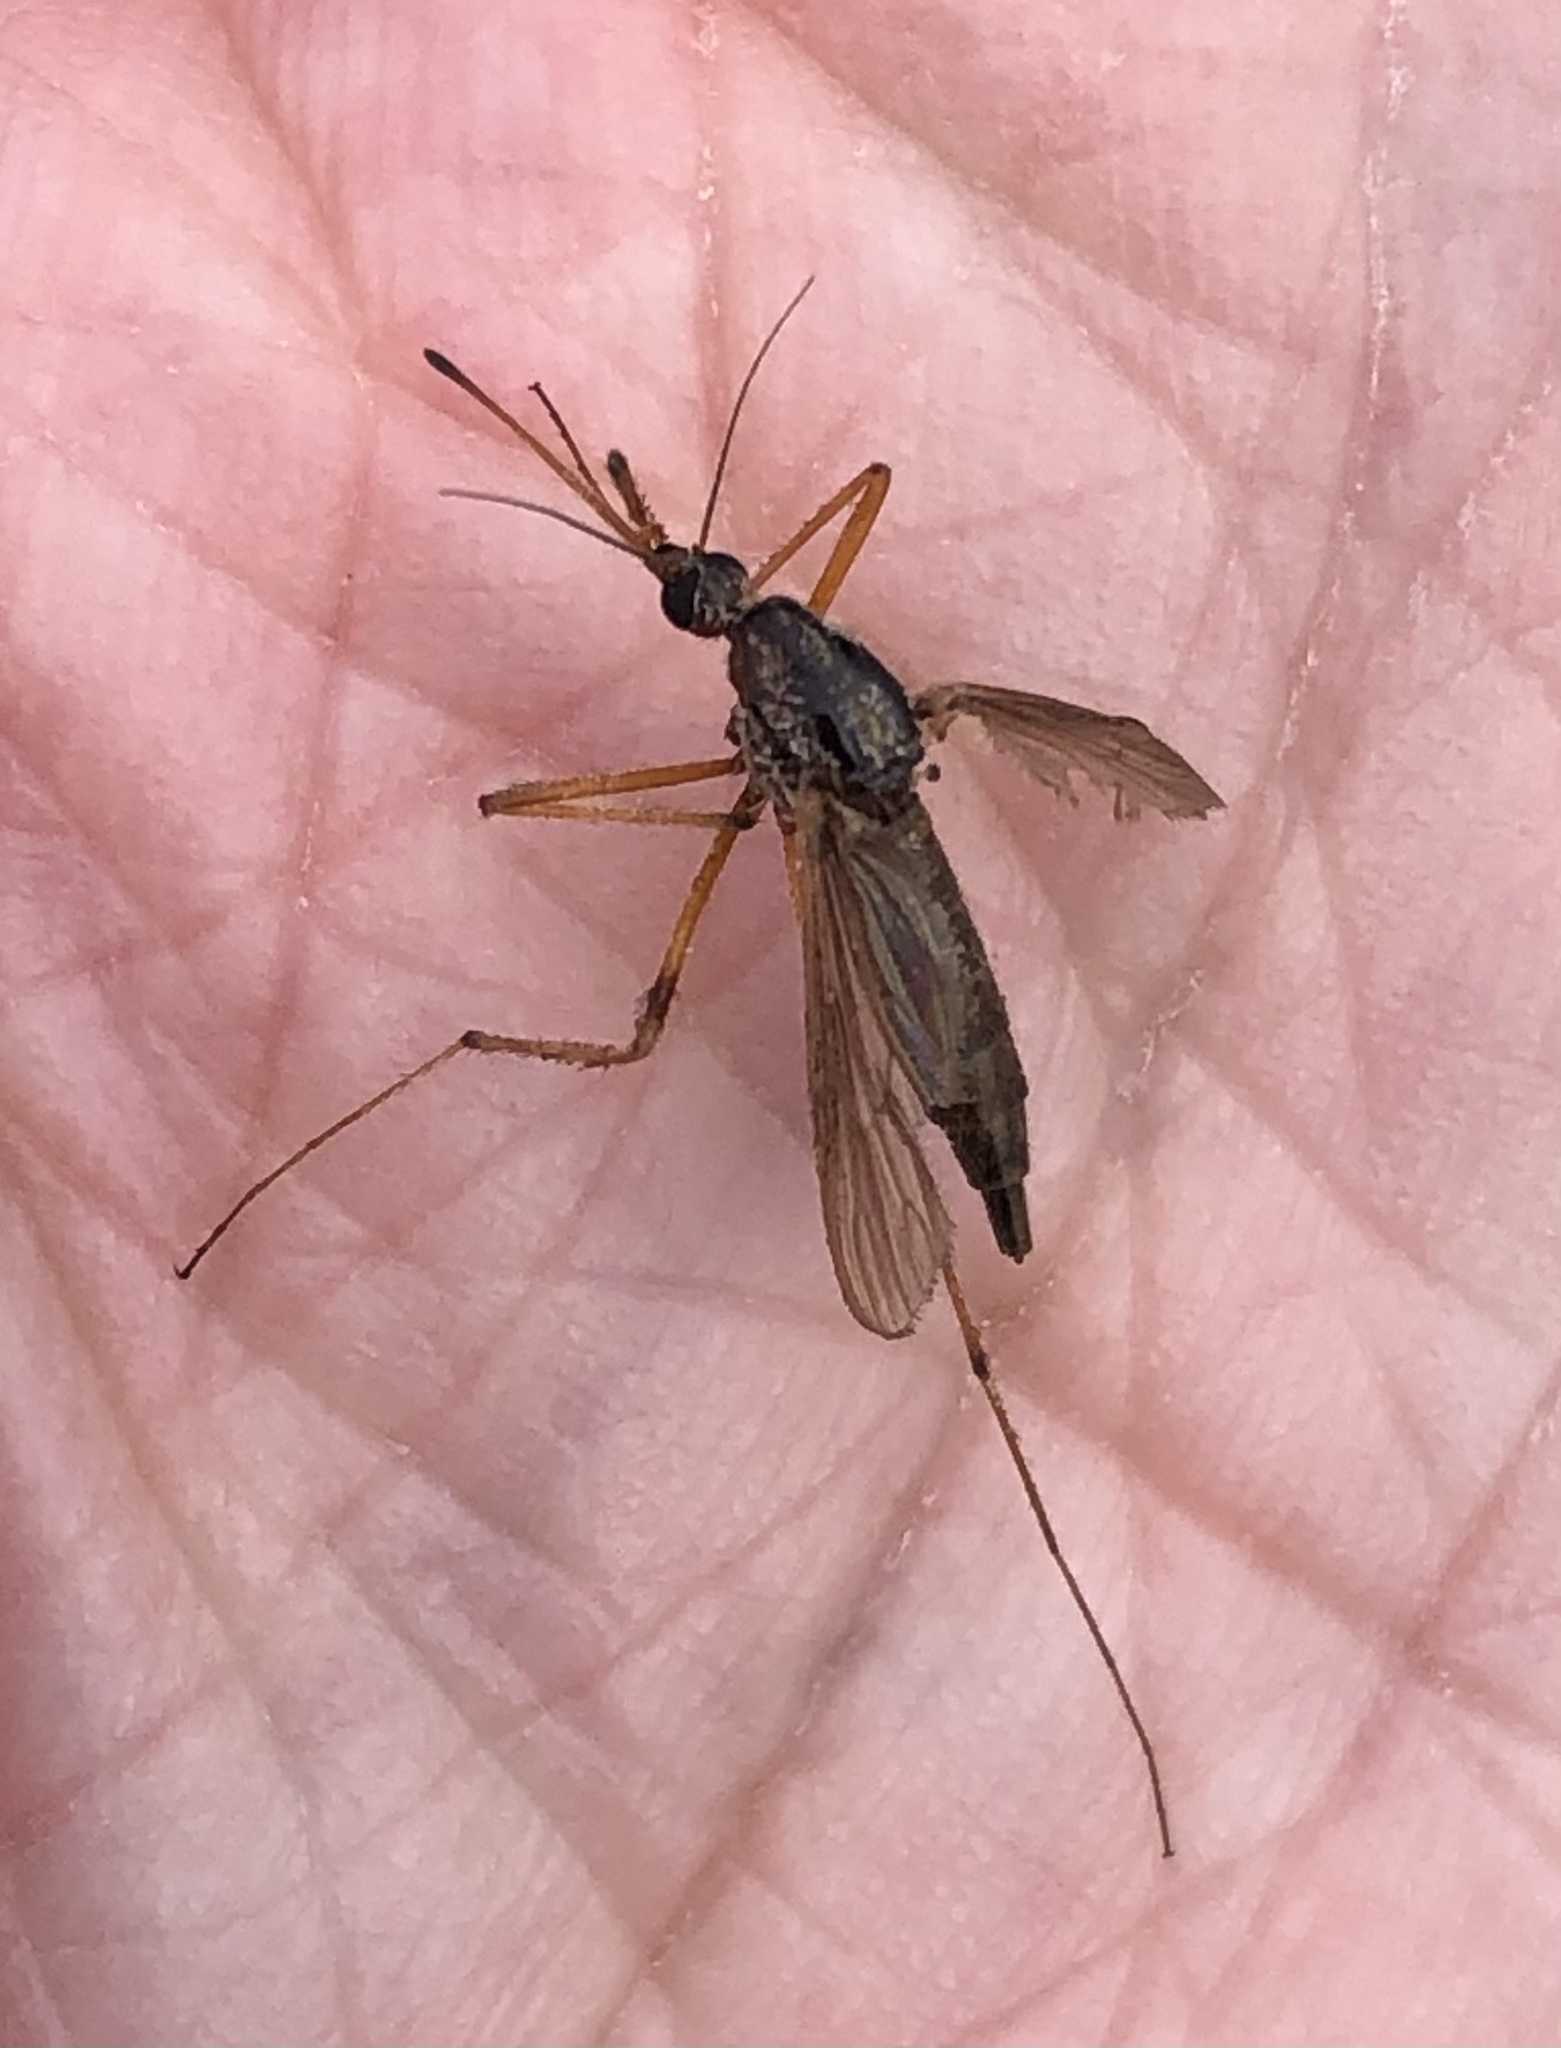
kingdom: Animalia
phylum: Arthropoda
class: Insecta
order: Diptera
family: Culicidae
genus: Psorophora
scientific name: Psorophora ciliata
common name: Gallinipper
